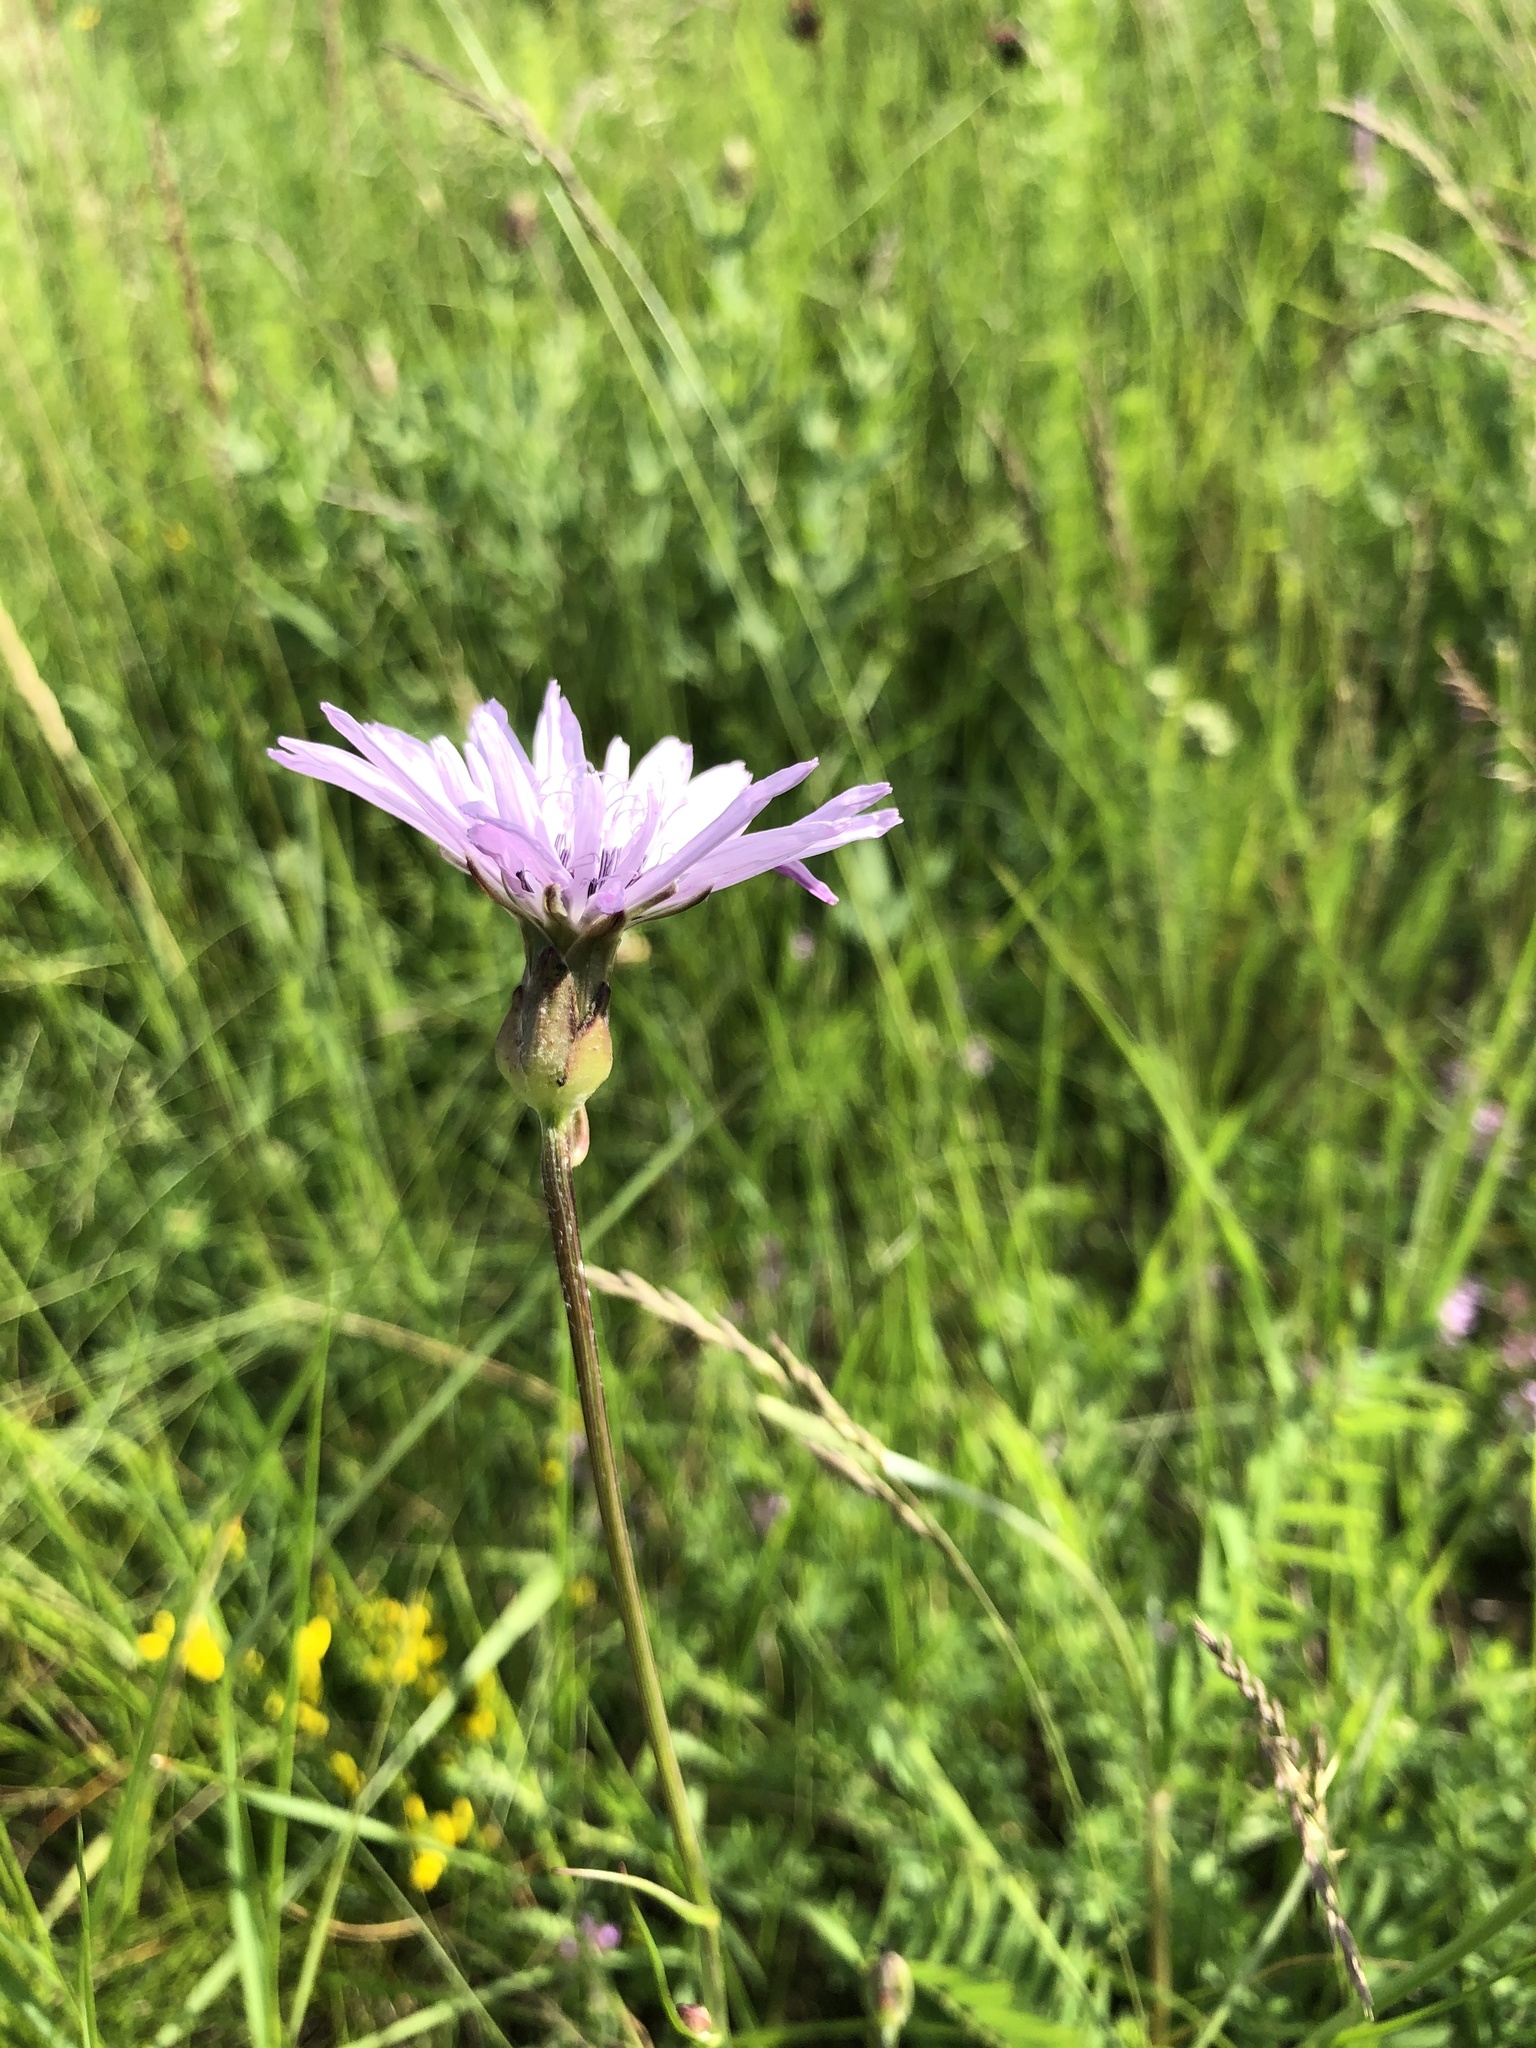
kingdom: Plantae
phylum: Tracheophyta
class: Magnoliopsida
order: Asterales
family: Asteraceae
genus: Scorzonera
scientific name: Scorzonera rosea
